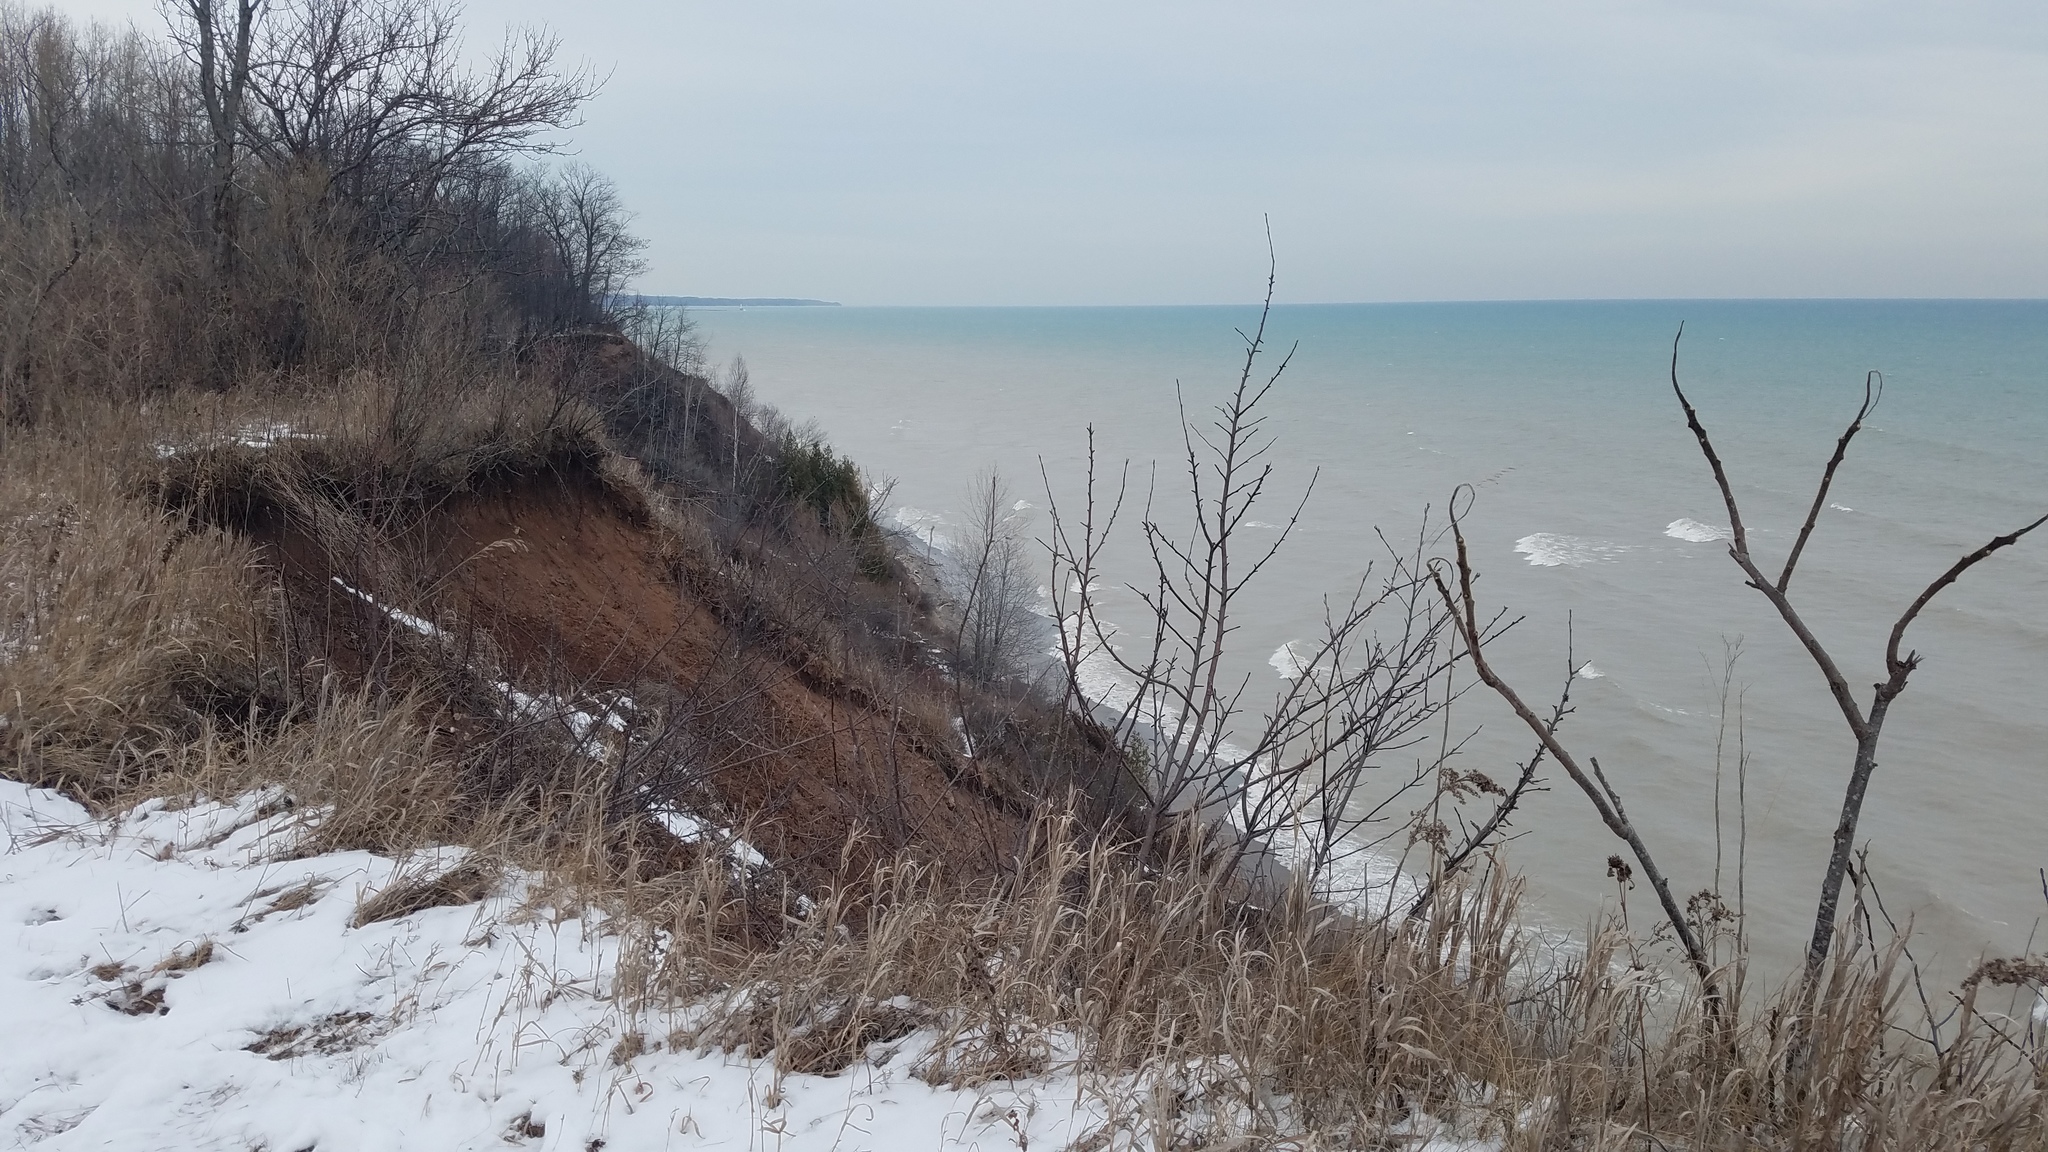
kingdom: Plantae
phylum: Tracheophyta
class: Pinopsida
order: Pinales
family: Cupressaceae
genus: Thuja
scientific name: Thuja occidentalis
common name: Northern white-cedar
